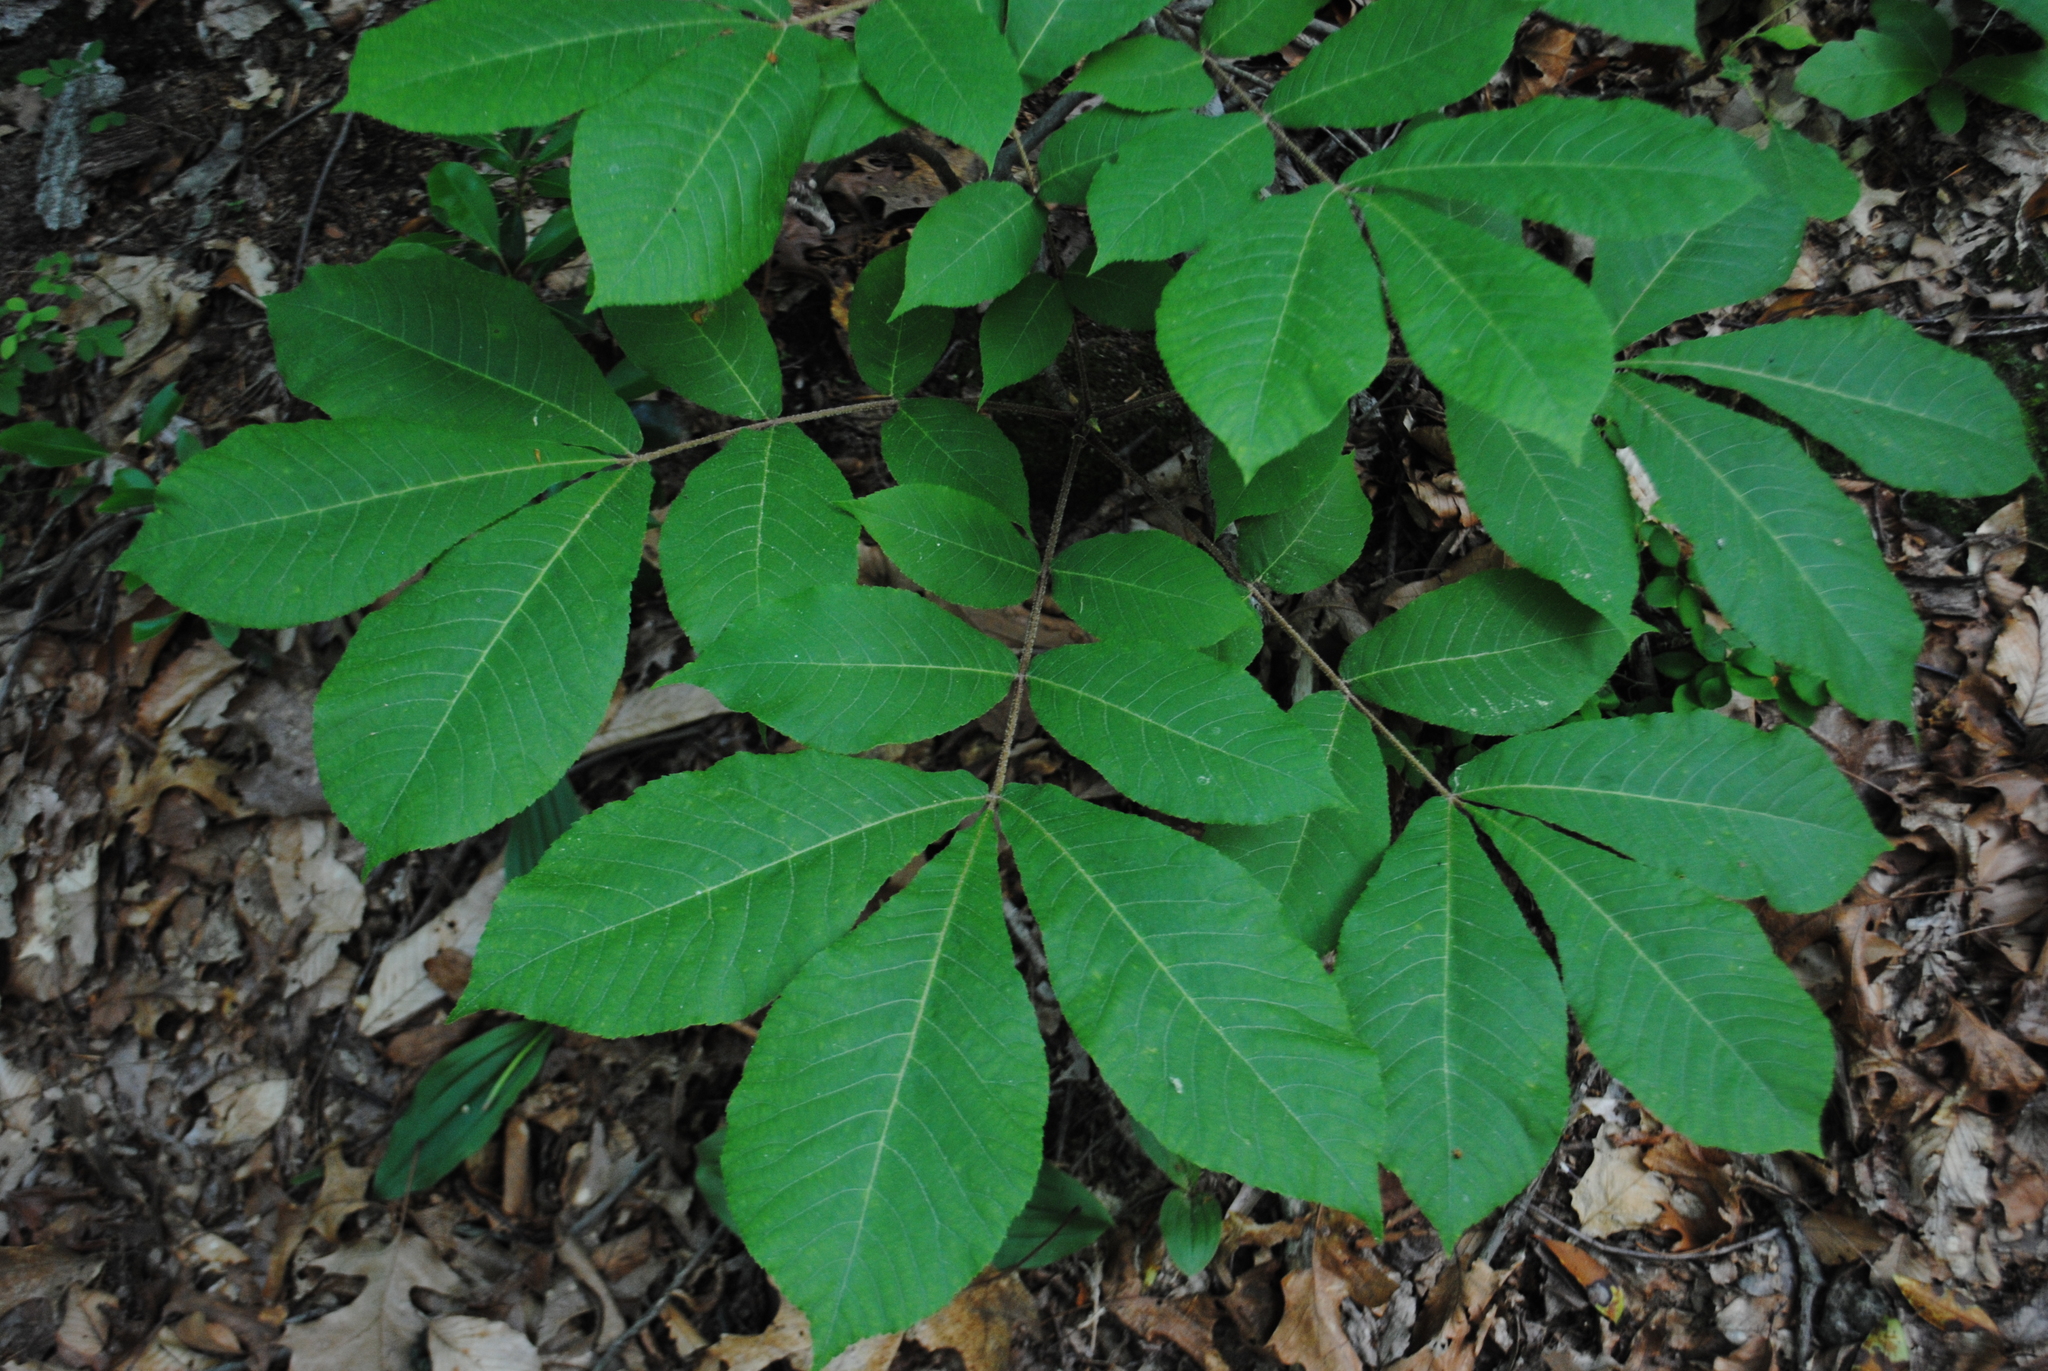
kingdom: Plantae
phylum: Tracheophyta
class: Magnoliopsida
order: Fagales
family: Juglandaceae
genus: Carya
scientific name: Carya alba
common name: Mockernut hickory
